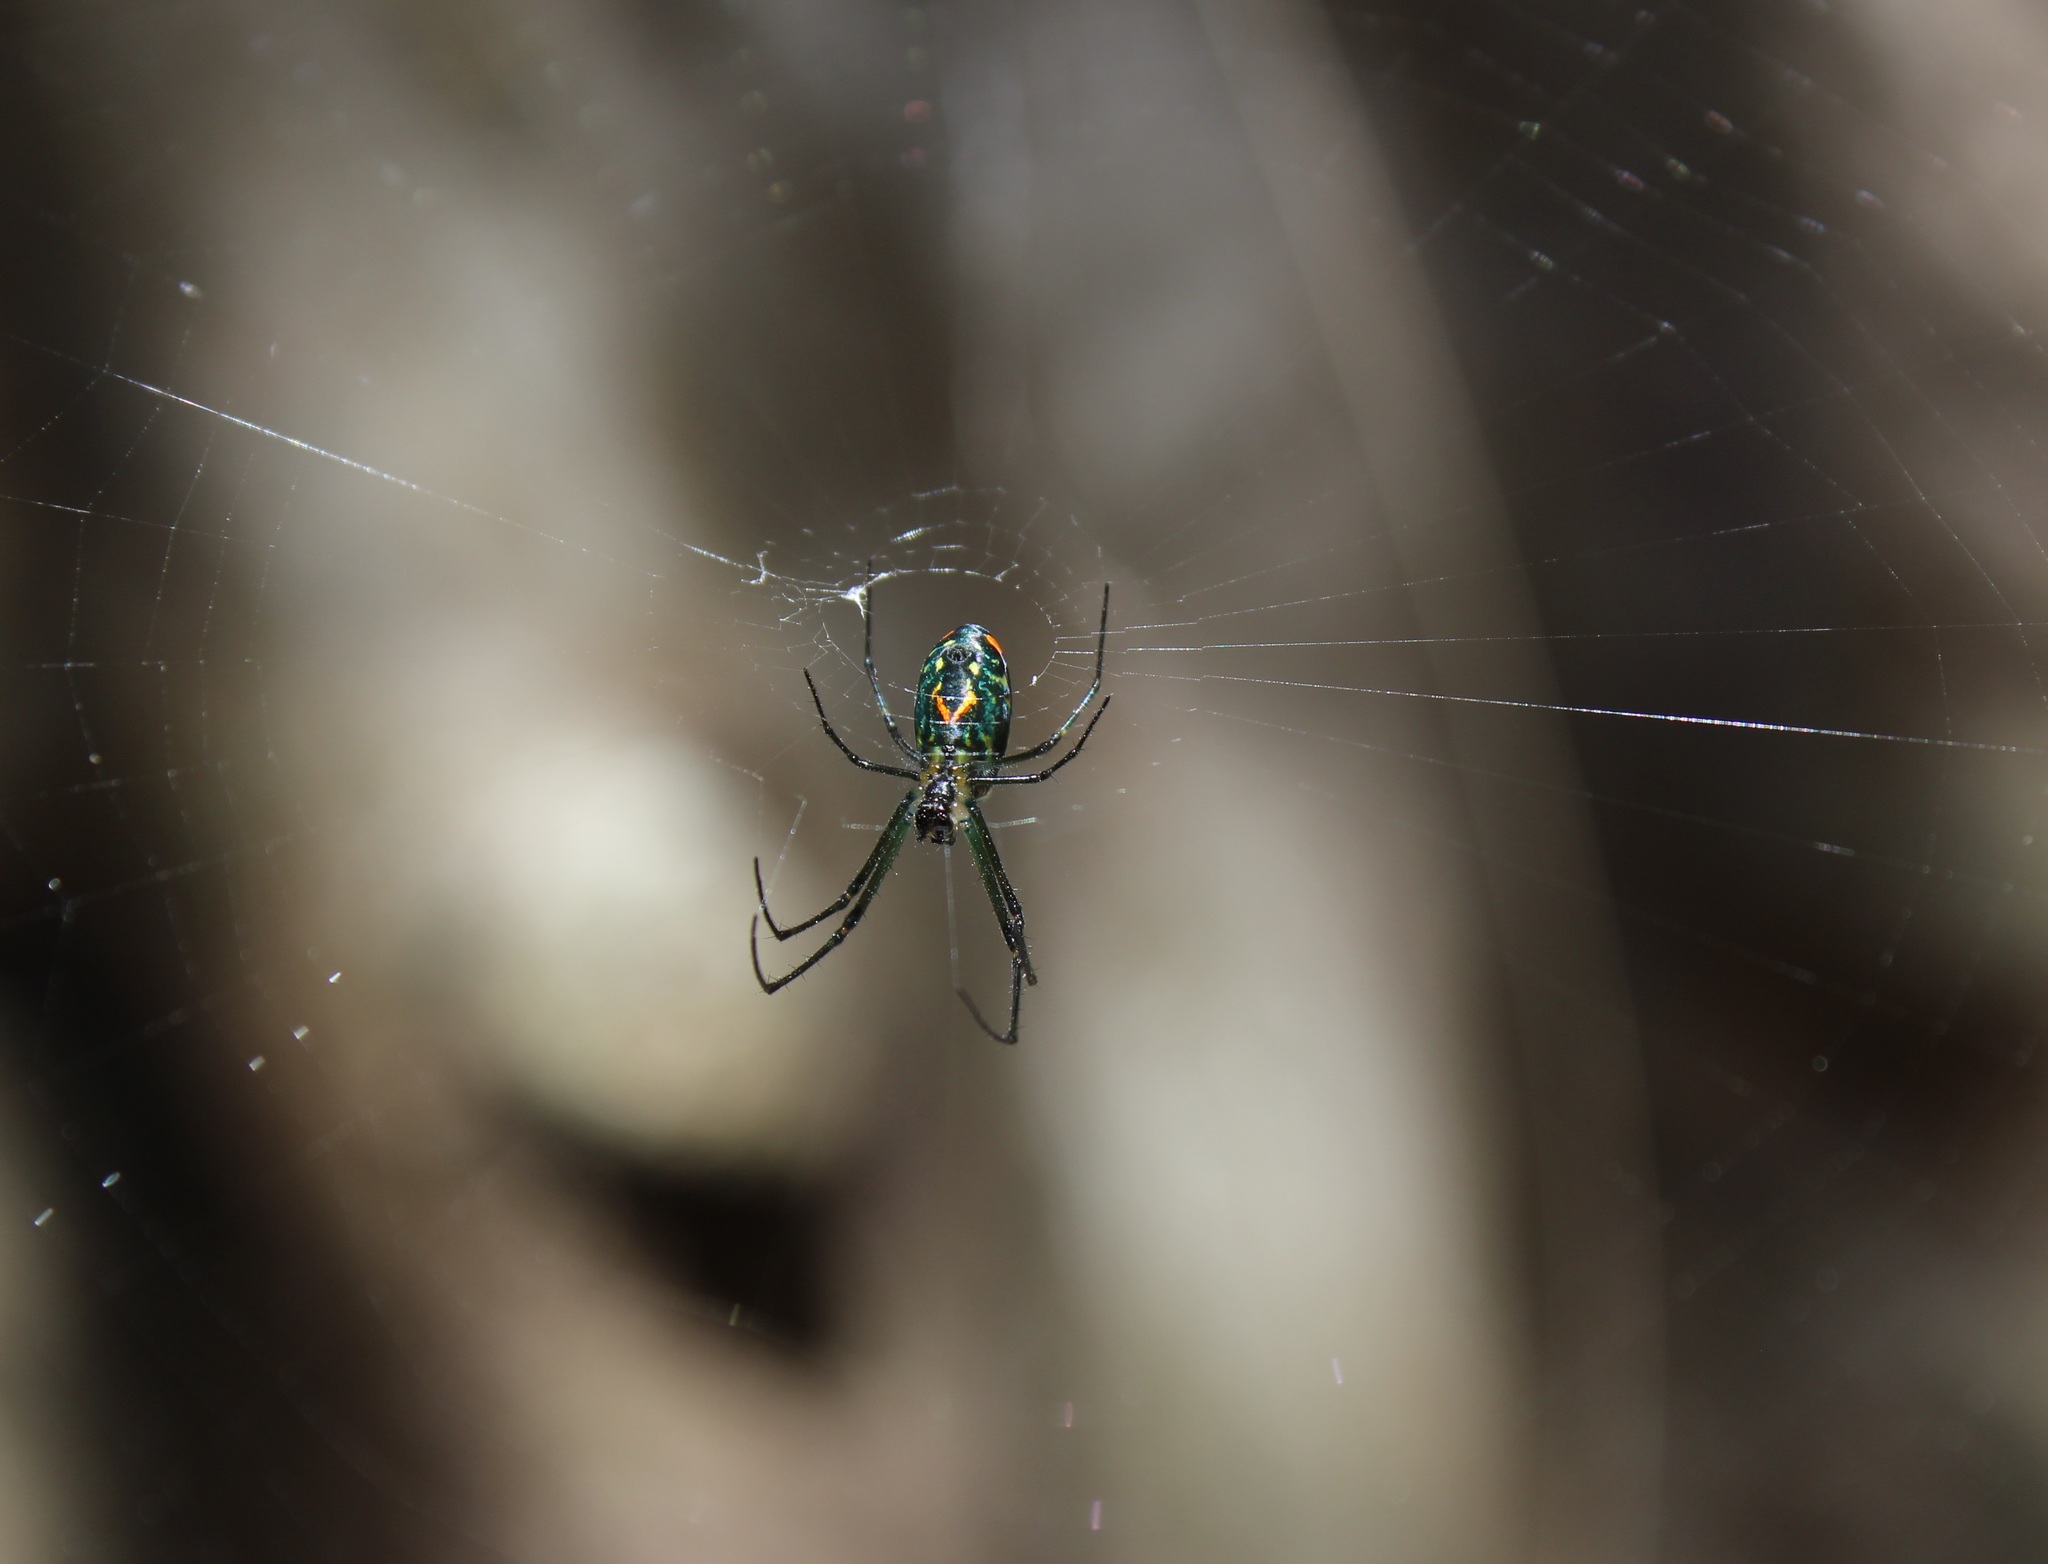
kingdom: Animalia
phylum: Arthropoda
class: Arachnida
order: Araneae
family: Tetragnathidae
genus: Leucauge
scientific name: Leucauge argyrobapta
